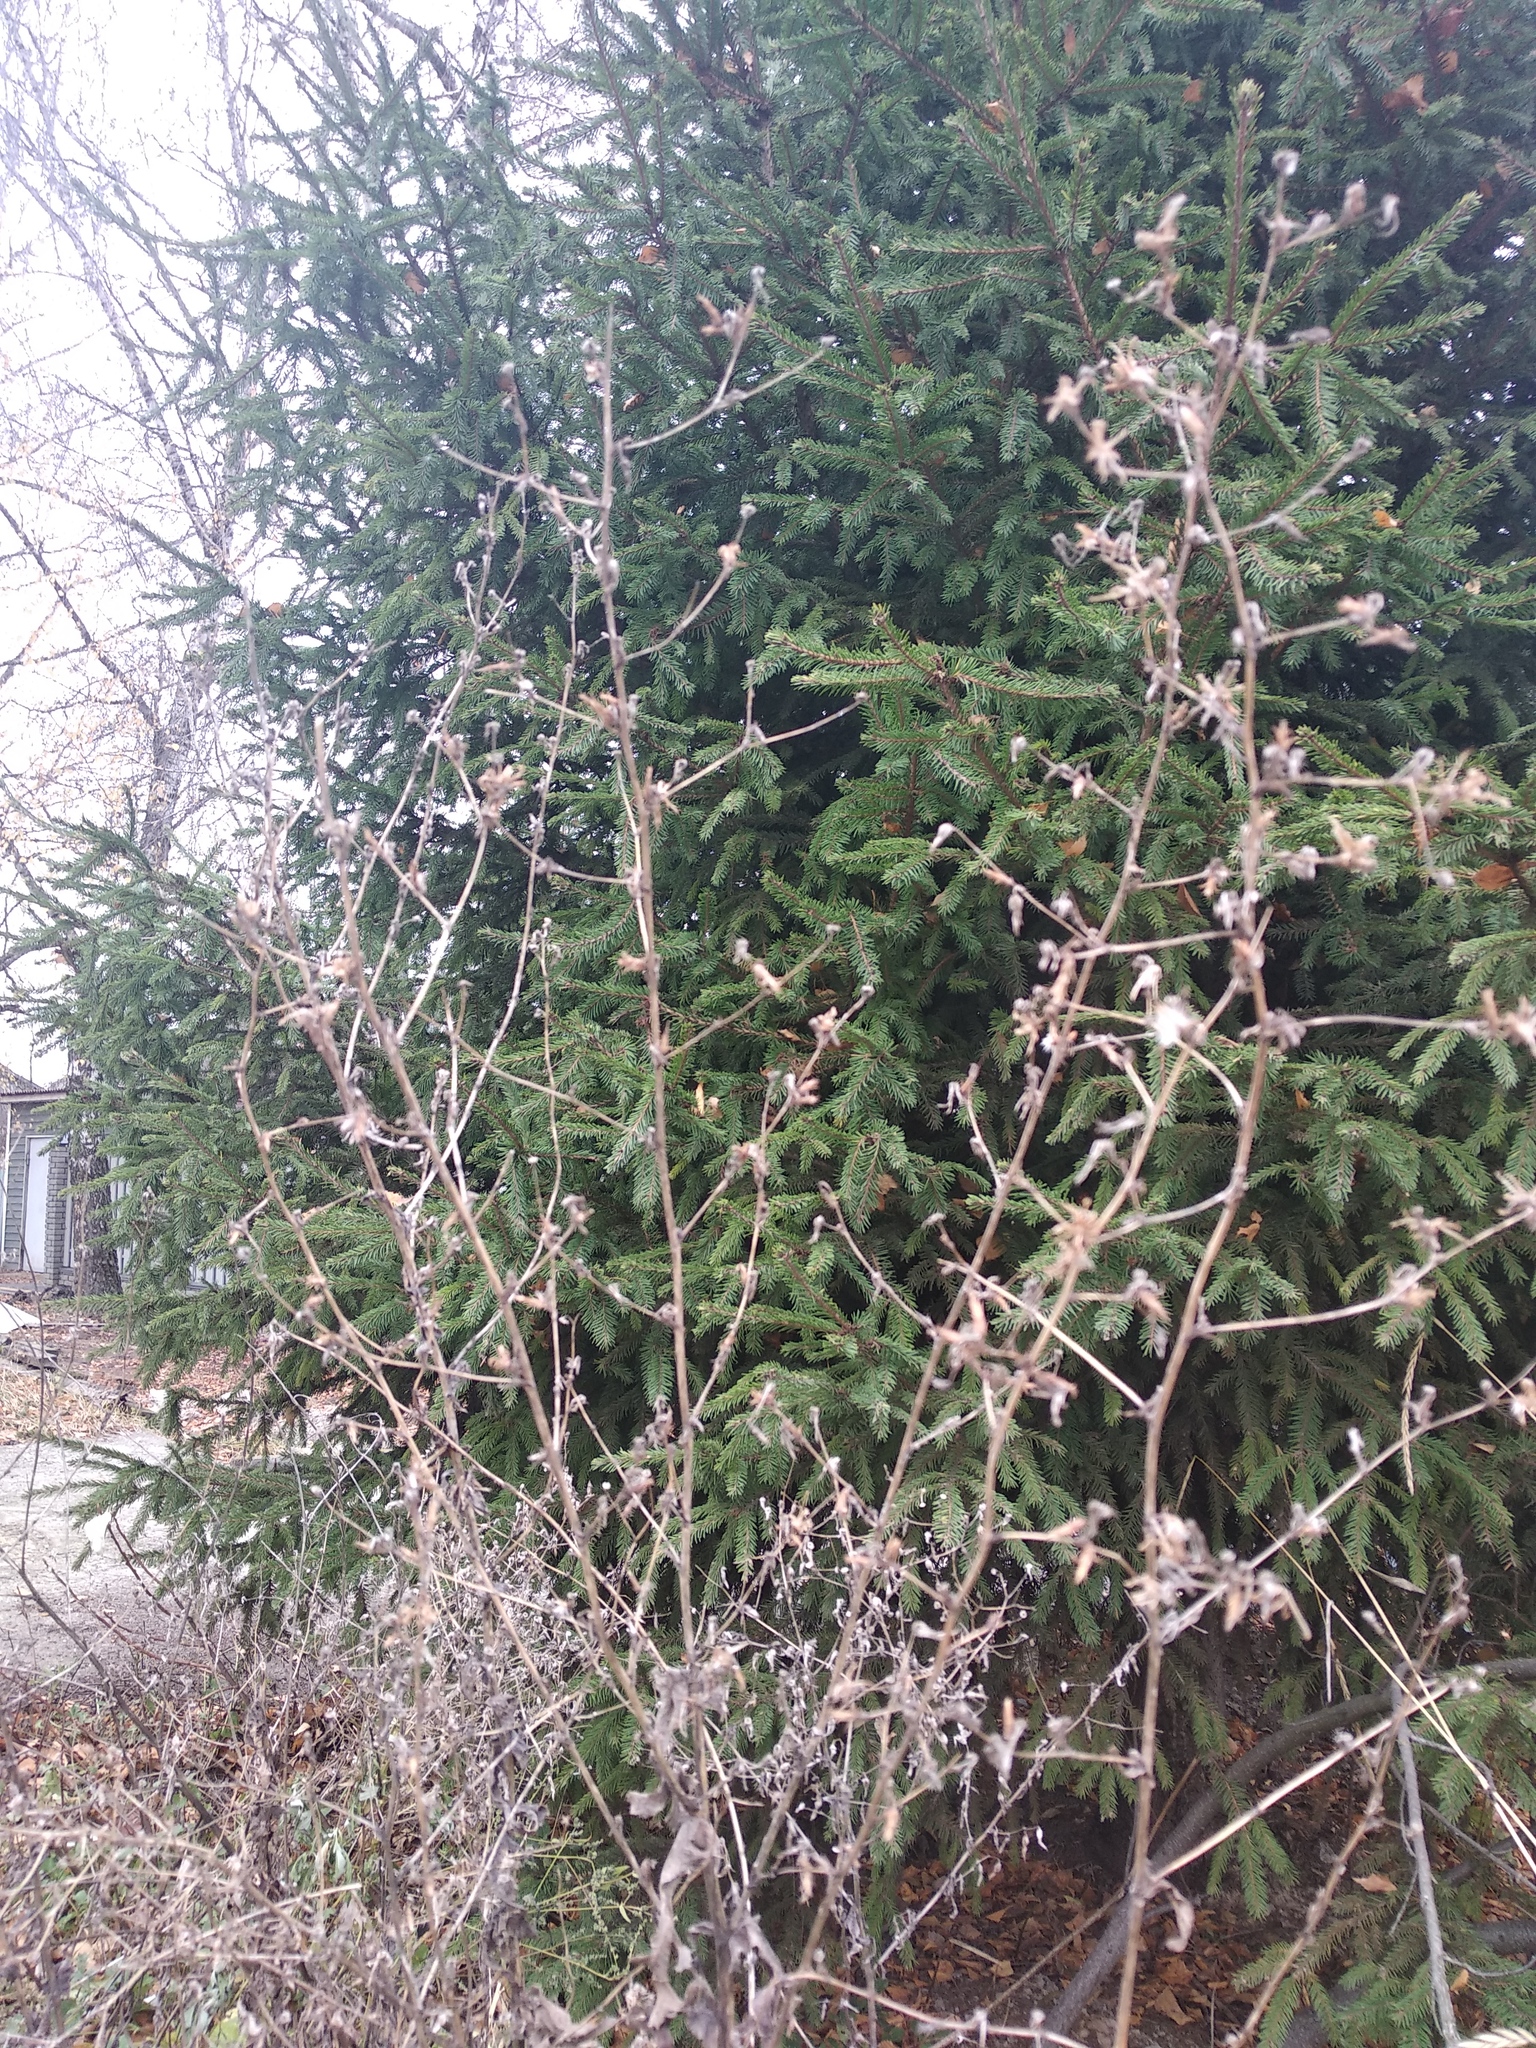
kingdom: Plantae
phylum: Tracheophyta
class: Magnoliopsida
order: Asterales
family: Asteraceae
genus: Lactuca
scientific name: Lactuca serriola
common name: Prickly lettuce
